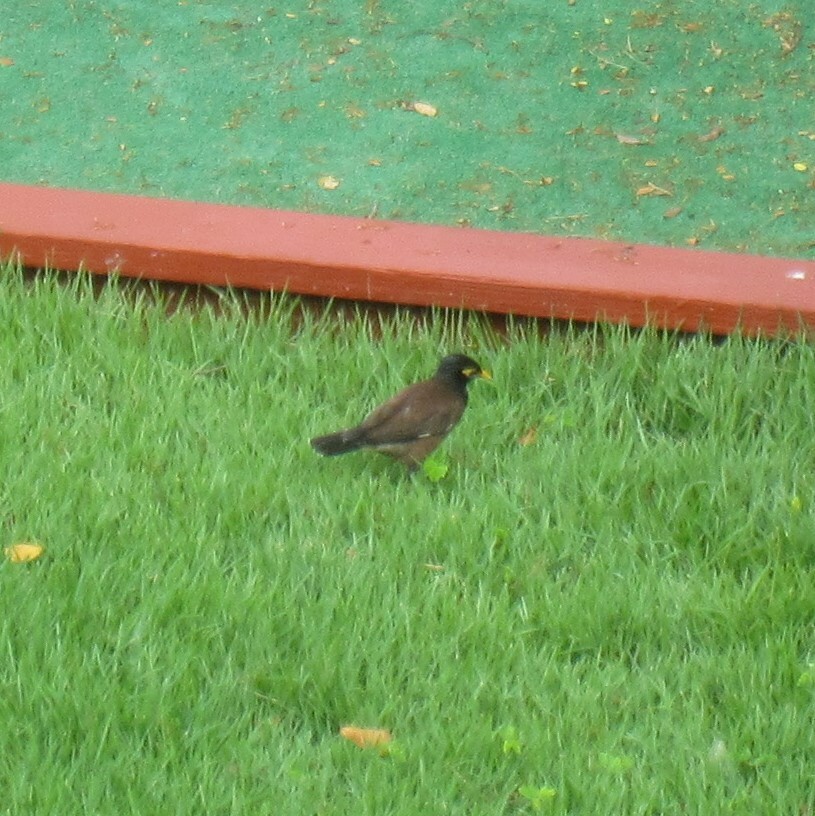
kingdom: Animalia
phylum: Chordata
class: Aves
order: Passeriformes
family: Sturnidae
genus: Acridotheres
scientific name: Acridotheres tristis
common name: Common myna
